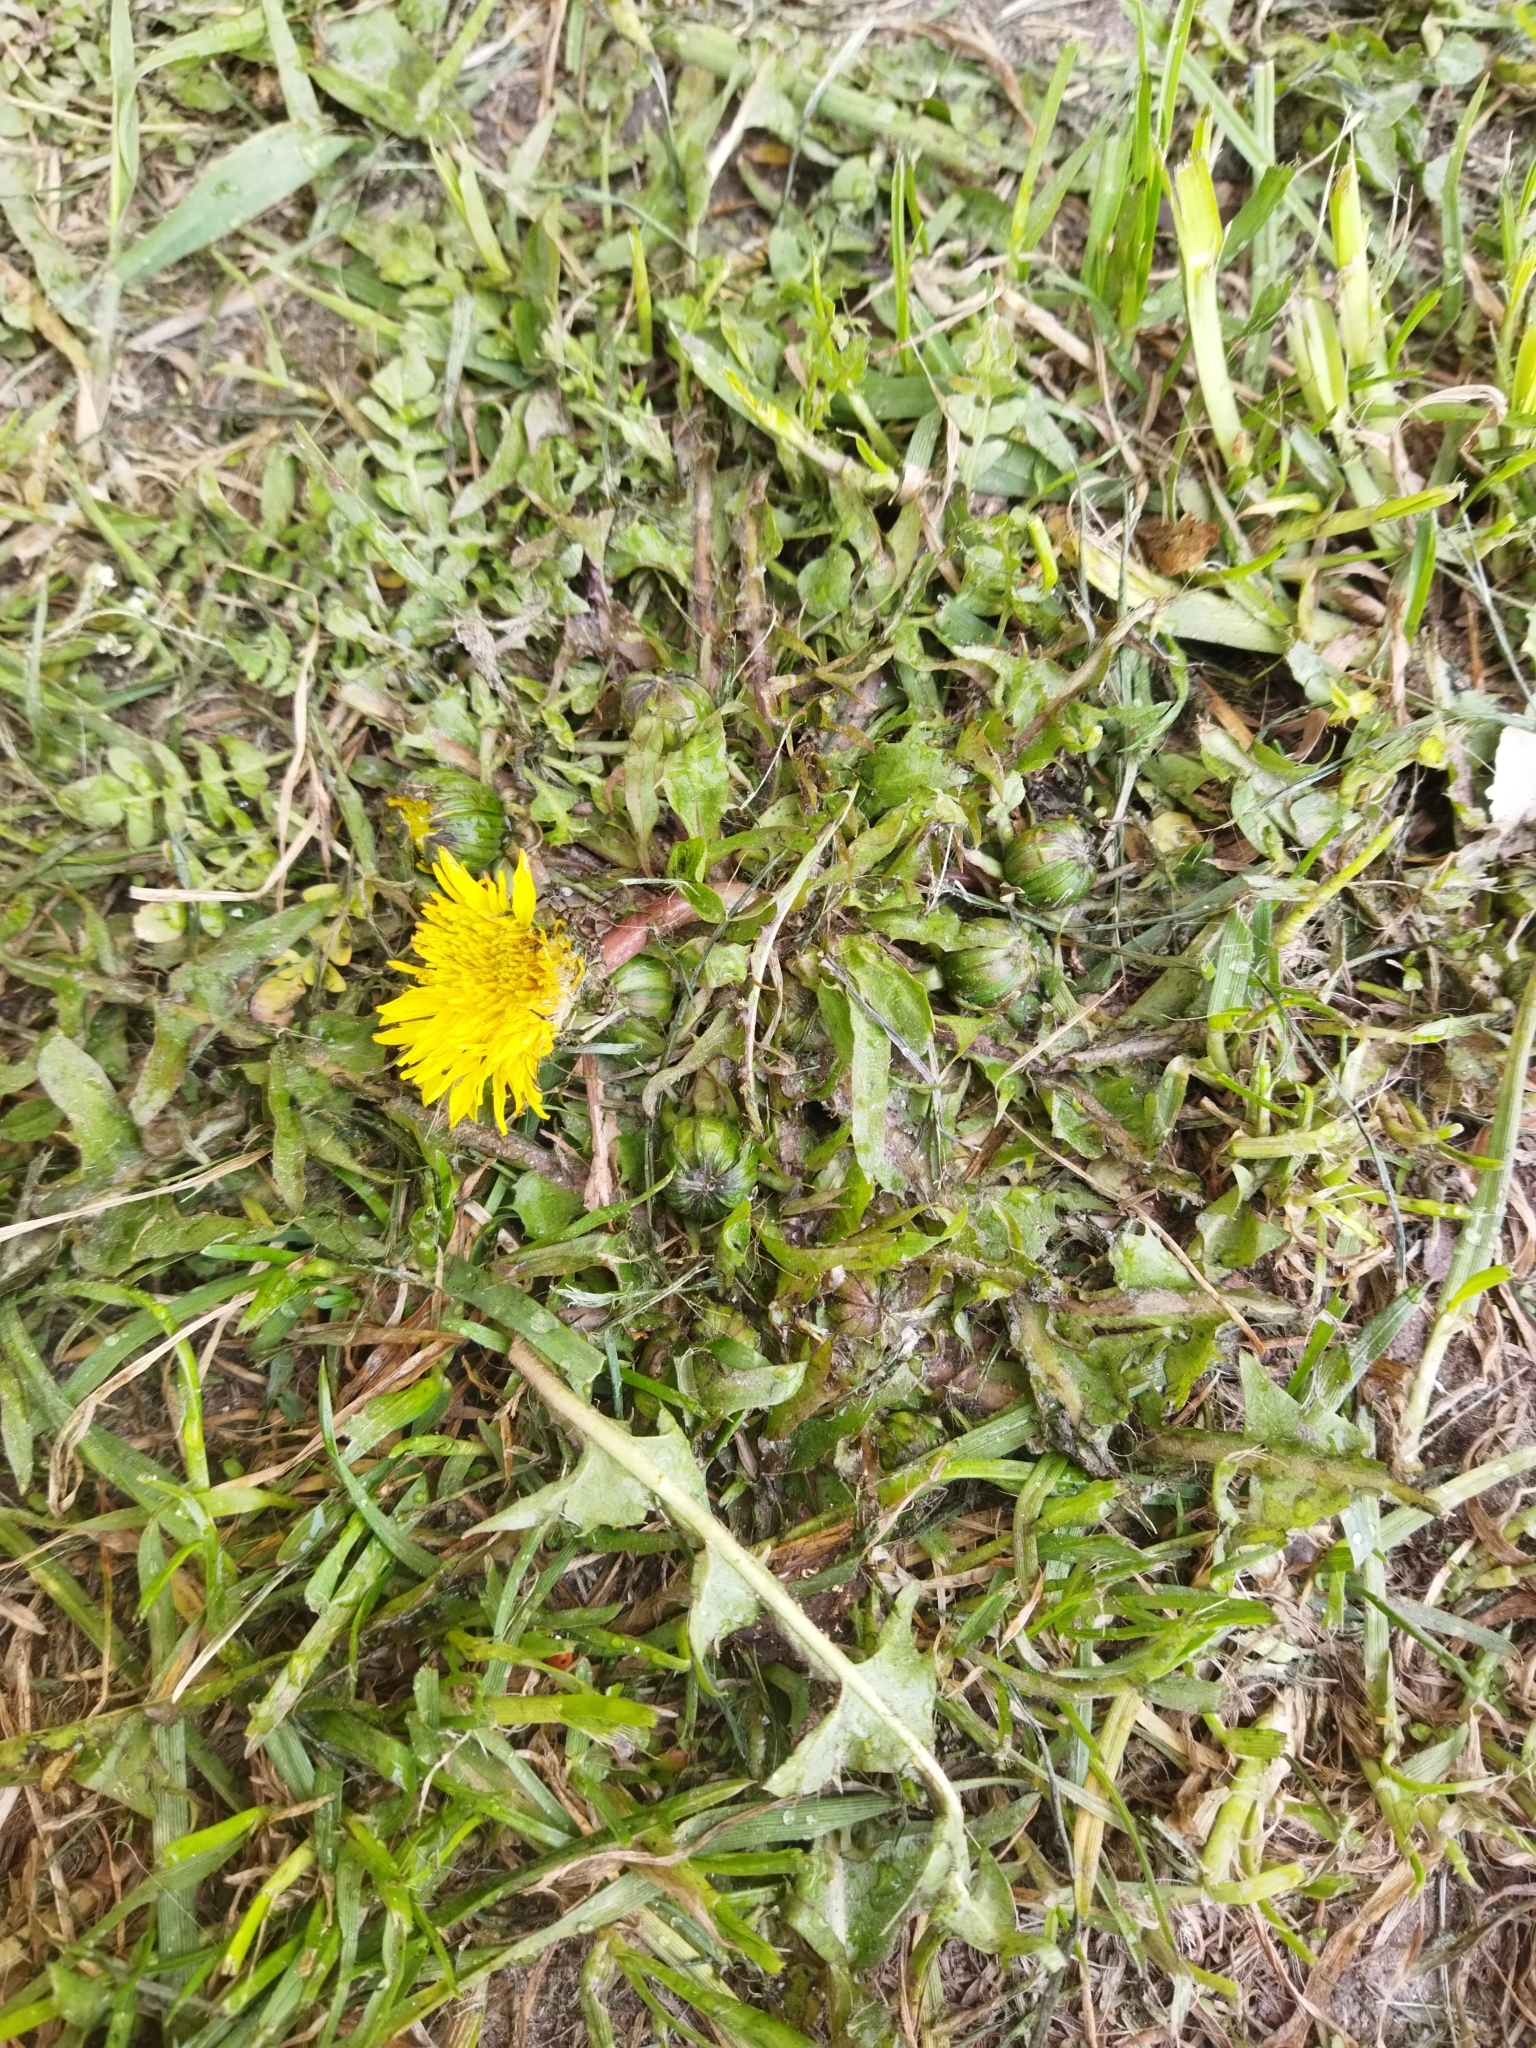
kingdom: Plantae
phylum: Tracheophyta
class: Magnoliopsida
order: Asterales
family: Asteraceae
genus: Taraxacum
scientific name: Taraxacum officinale
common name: Common dandelion
